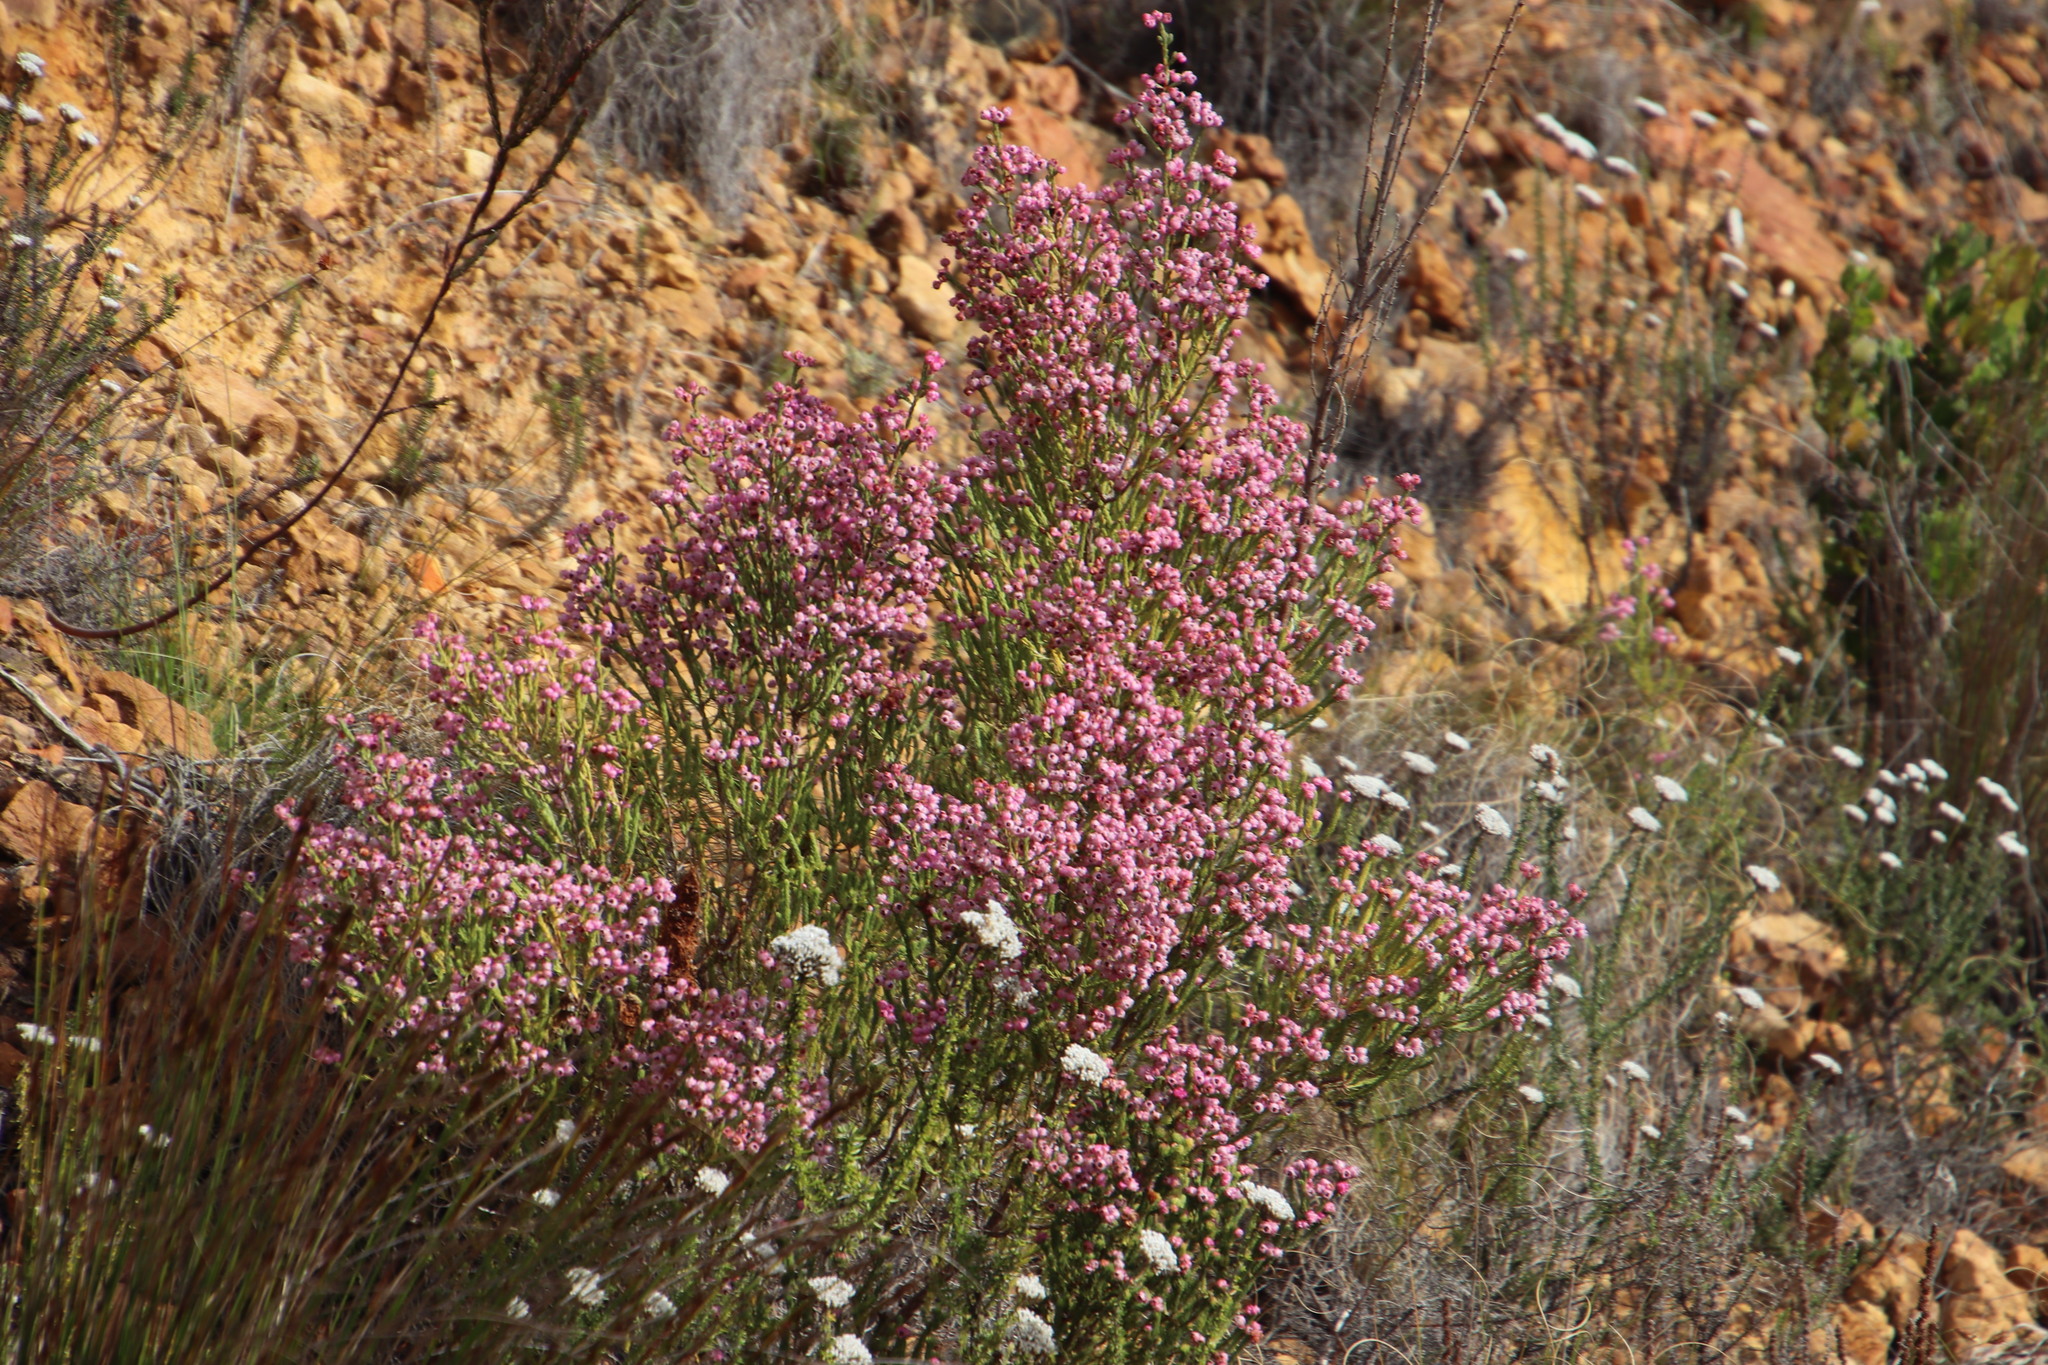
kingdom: Plantae
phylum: Tracheophyta
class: Magnoliopsida
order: Ericales
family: Ericaceae
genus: Erica
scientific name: Erica baccans
